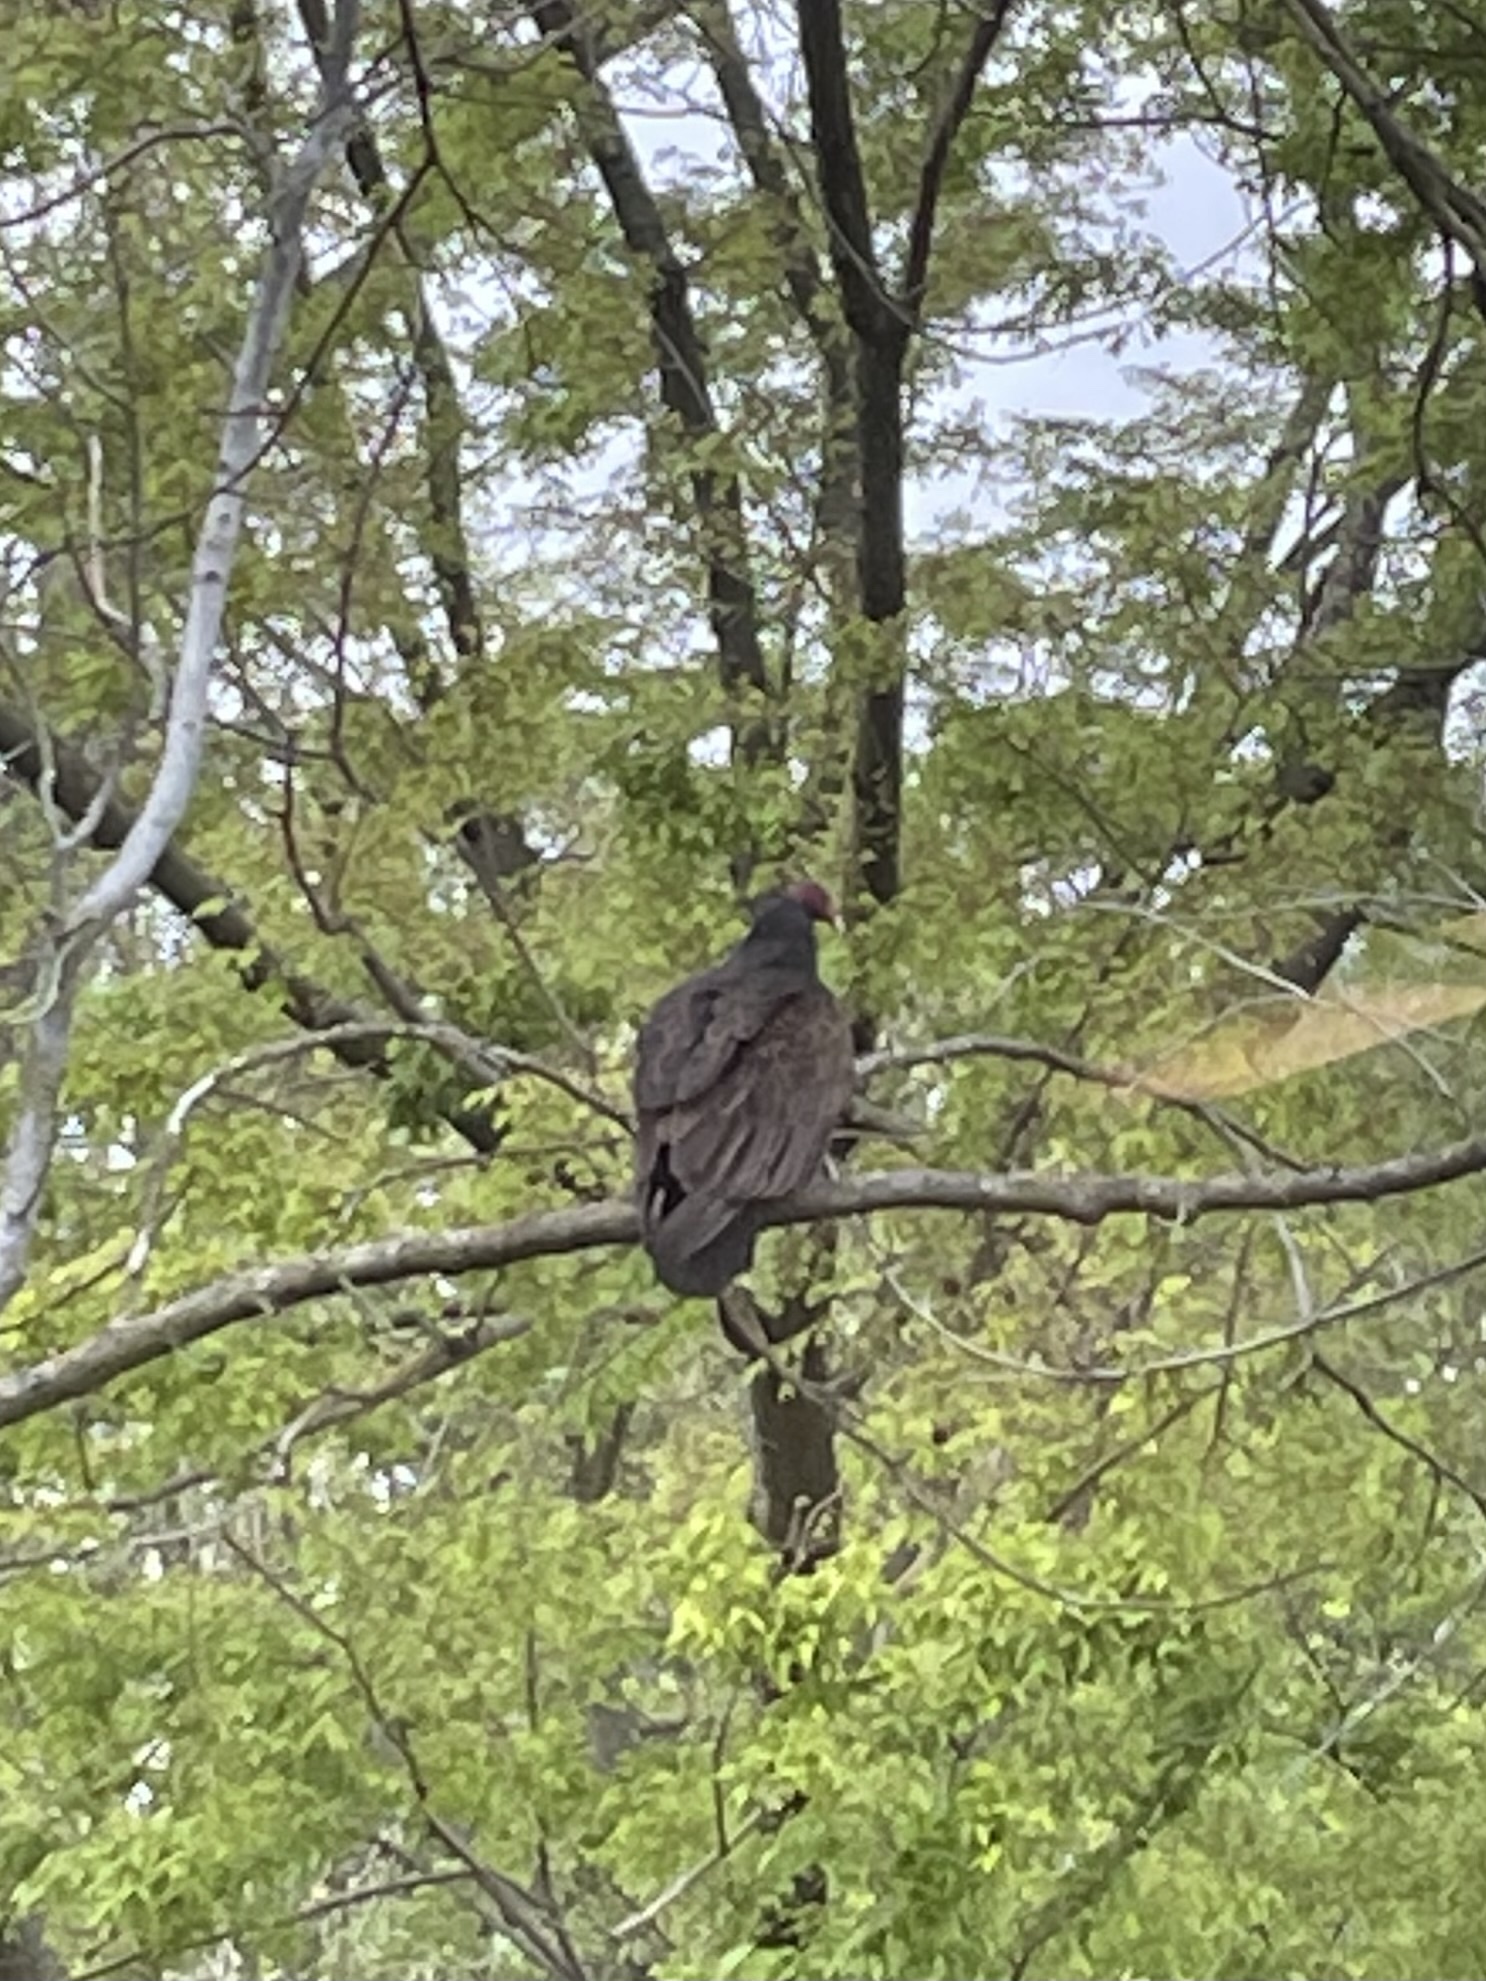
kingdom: Animalia
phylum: Chordata
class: Aves
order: Accipitriformes
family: Cathartidae
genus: Cathartes
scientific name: Cathartes aura
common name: Turkey vulture
